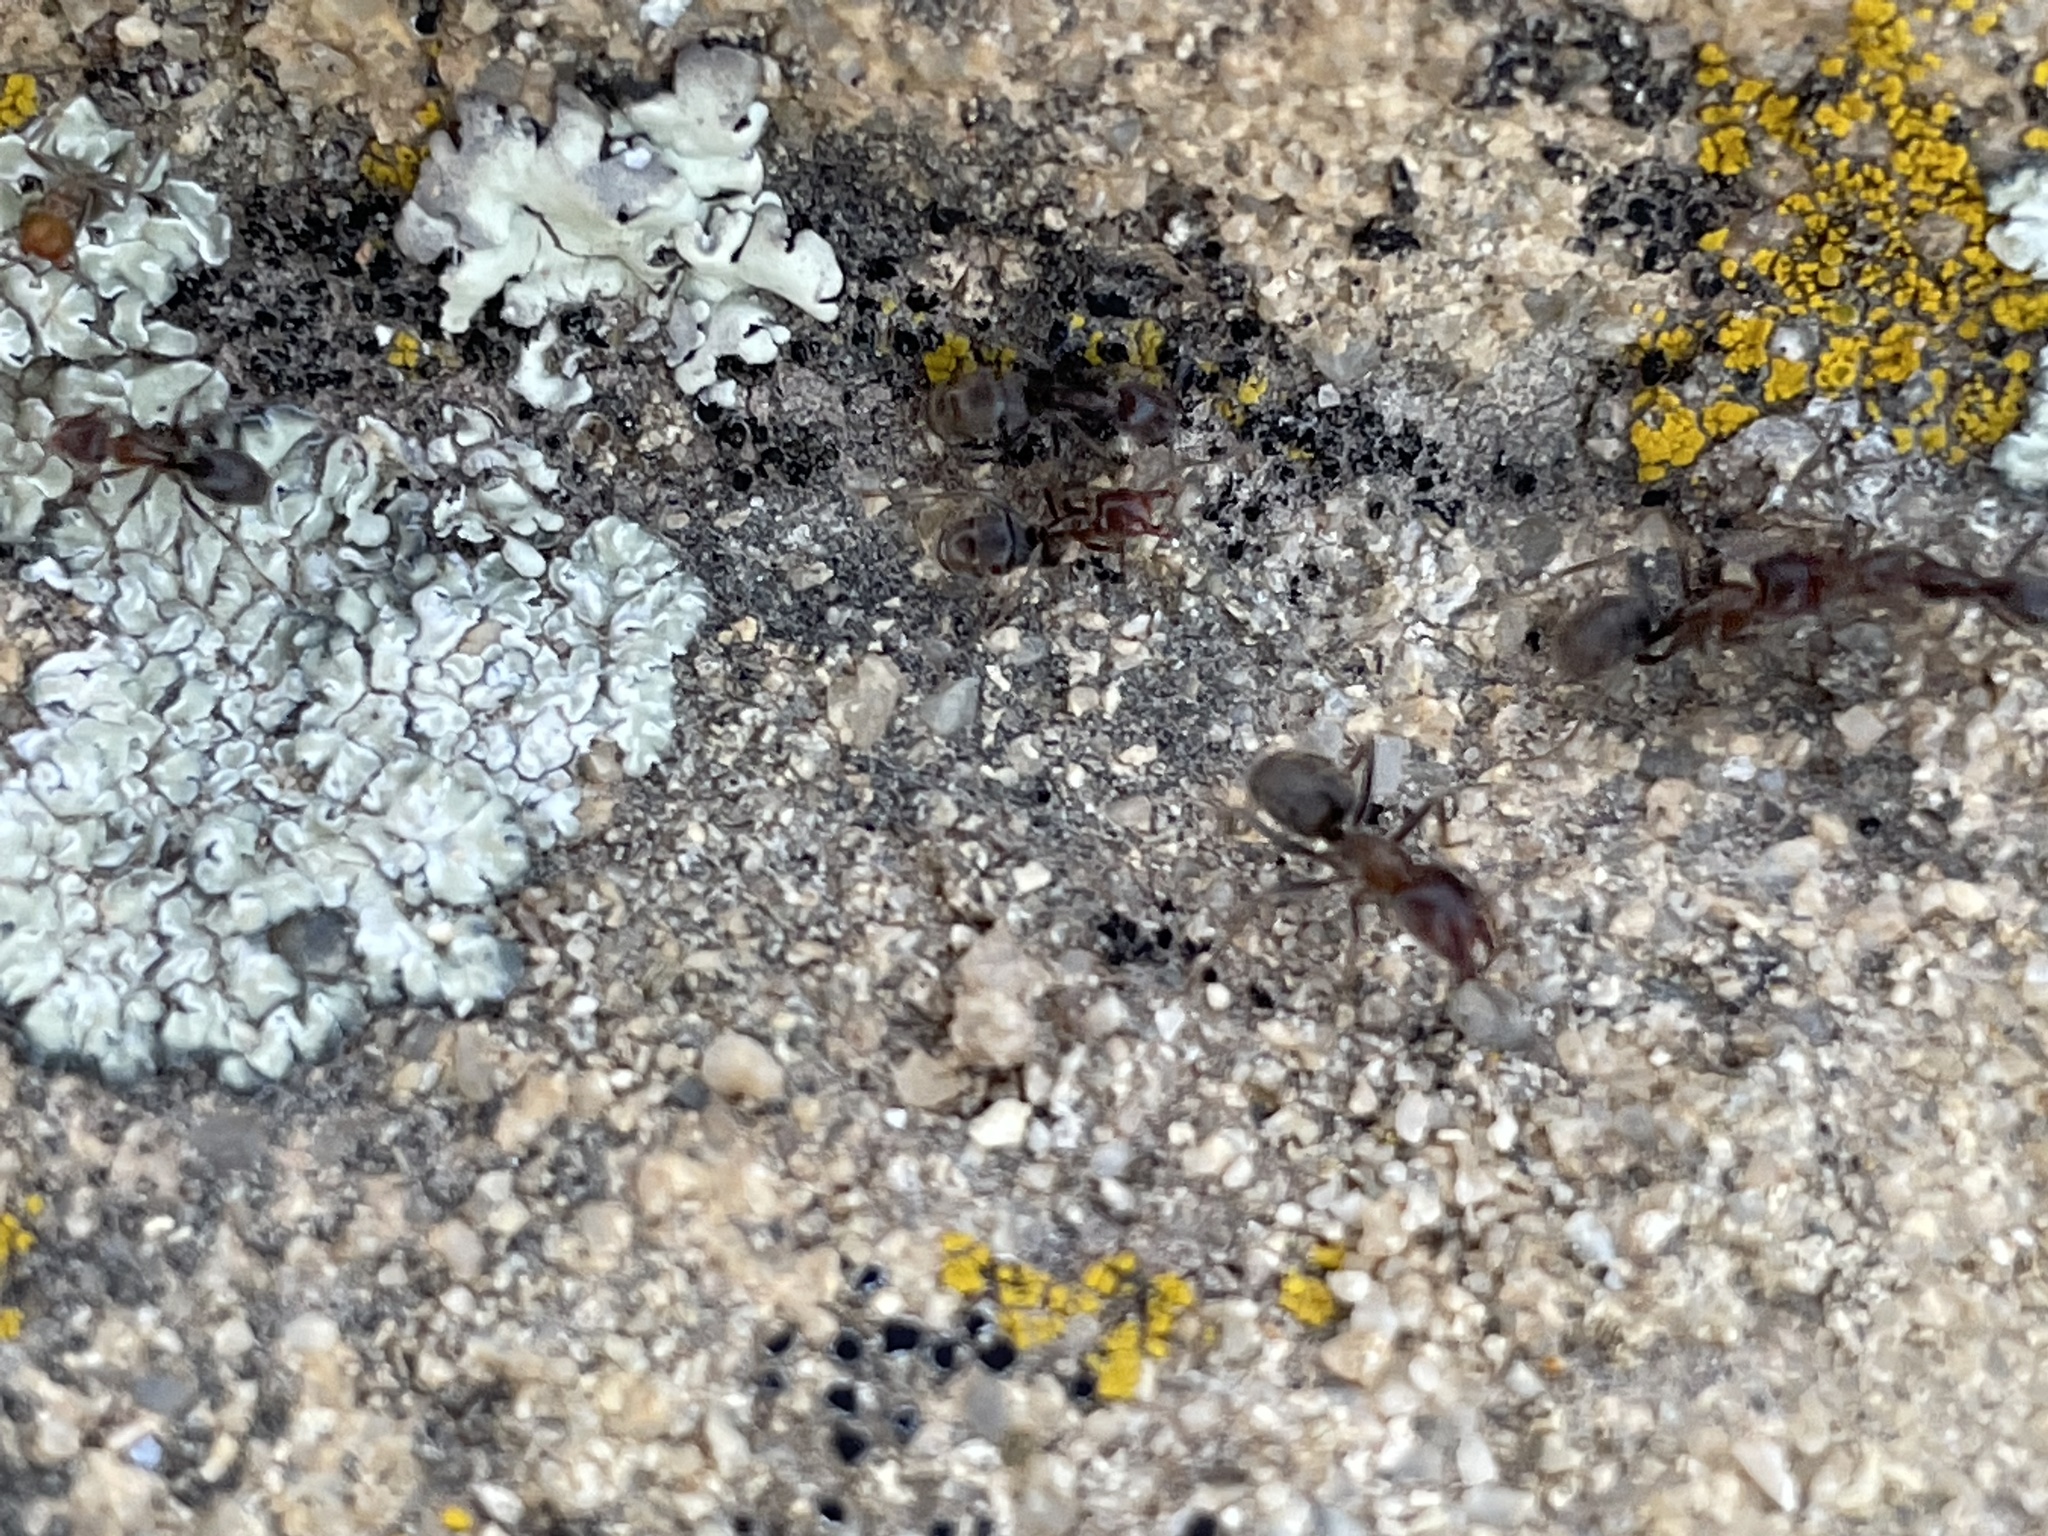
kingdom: Animalia
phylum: Arthropoda
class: Insecta
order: Hymenoptera
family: Formicidae
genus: Liometopum
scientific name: Liometopum apiculatum
